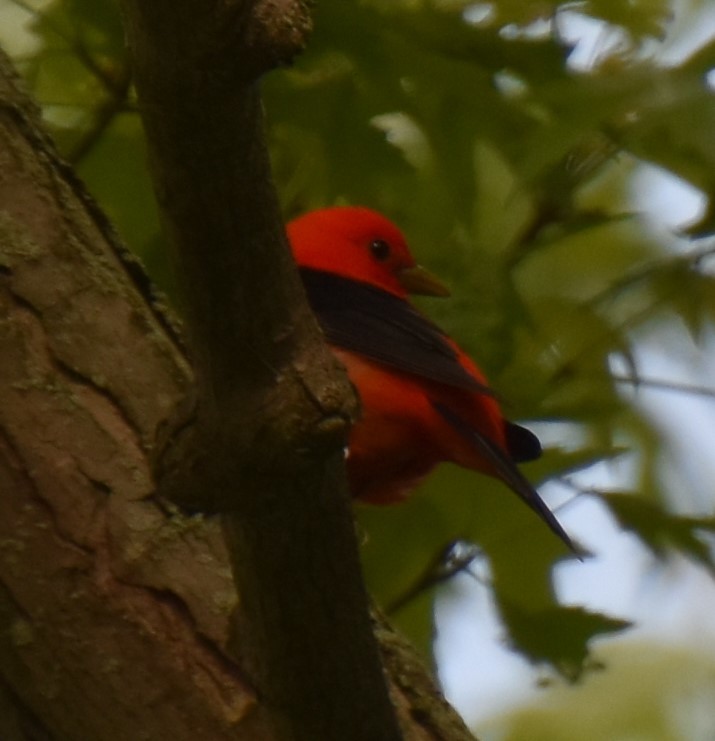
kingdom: Animalia
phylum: Chordata
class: Aves
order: Passeriformes
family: Cardinalidae
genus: Piranga
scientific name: Piranga olivacea
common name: Scarlet tanager
